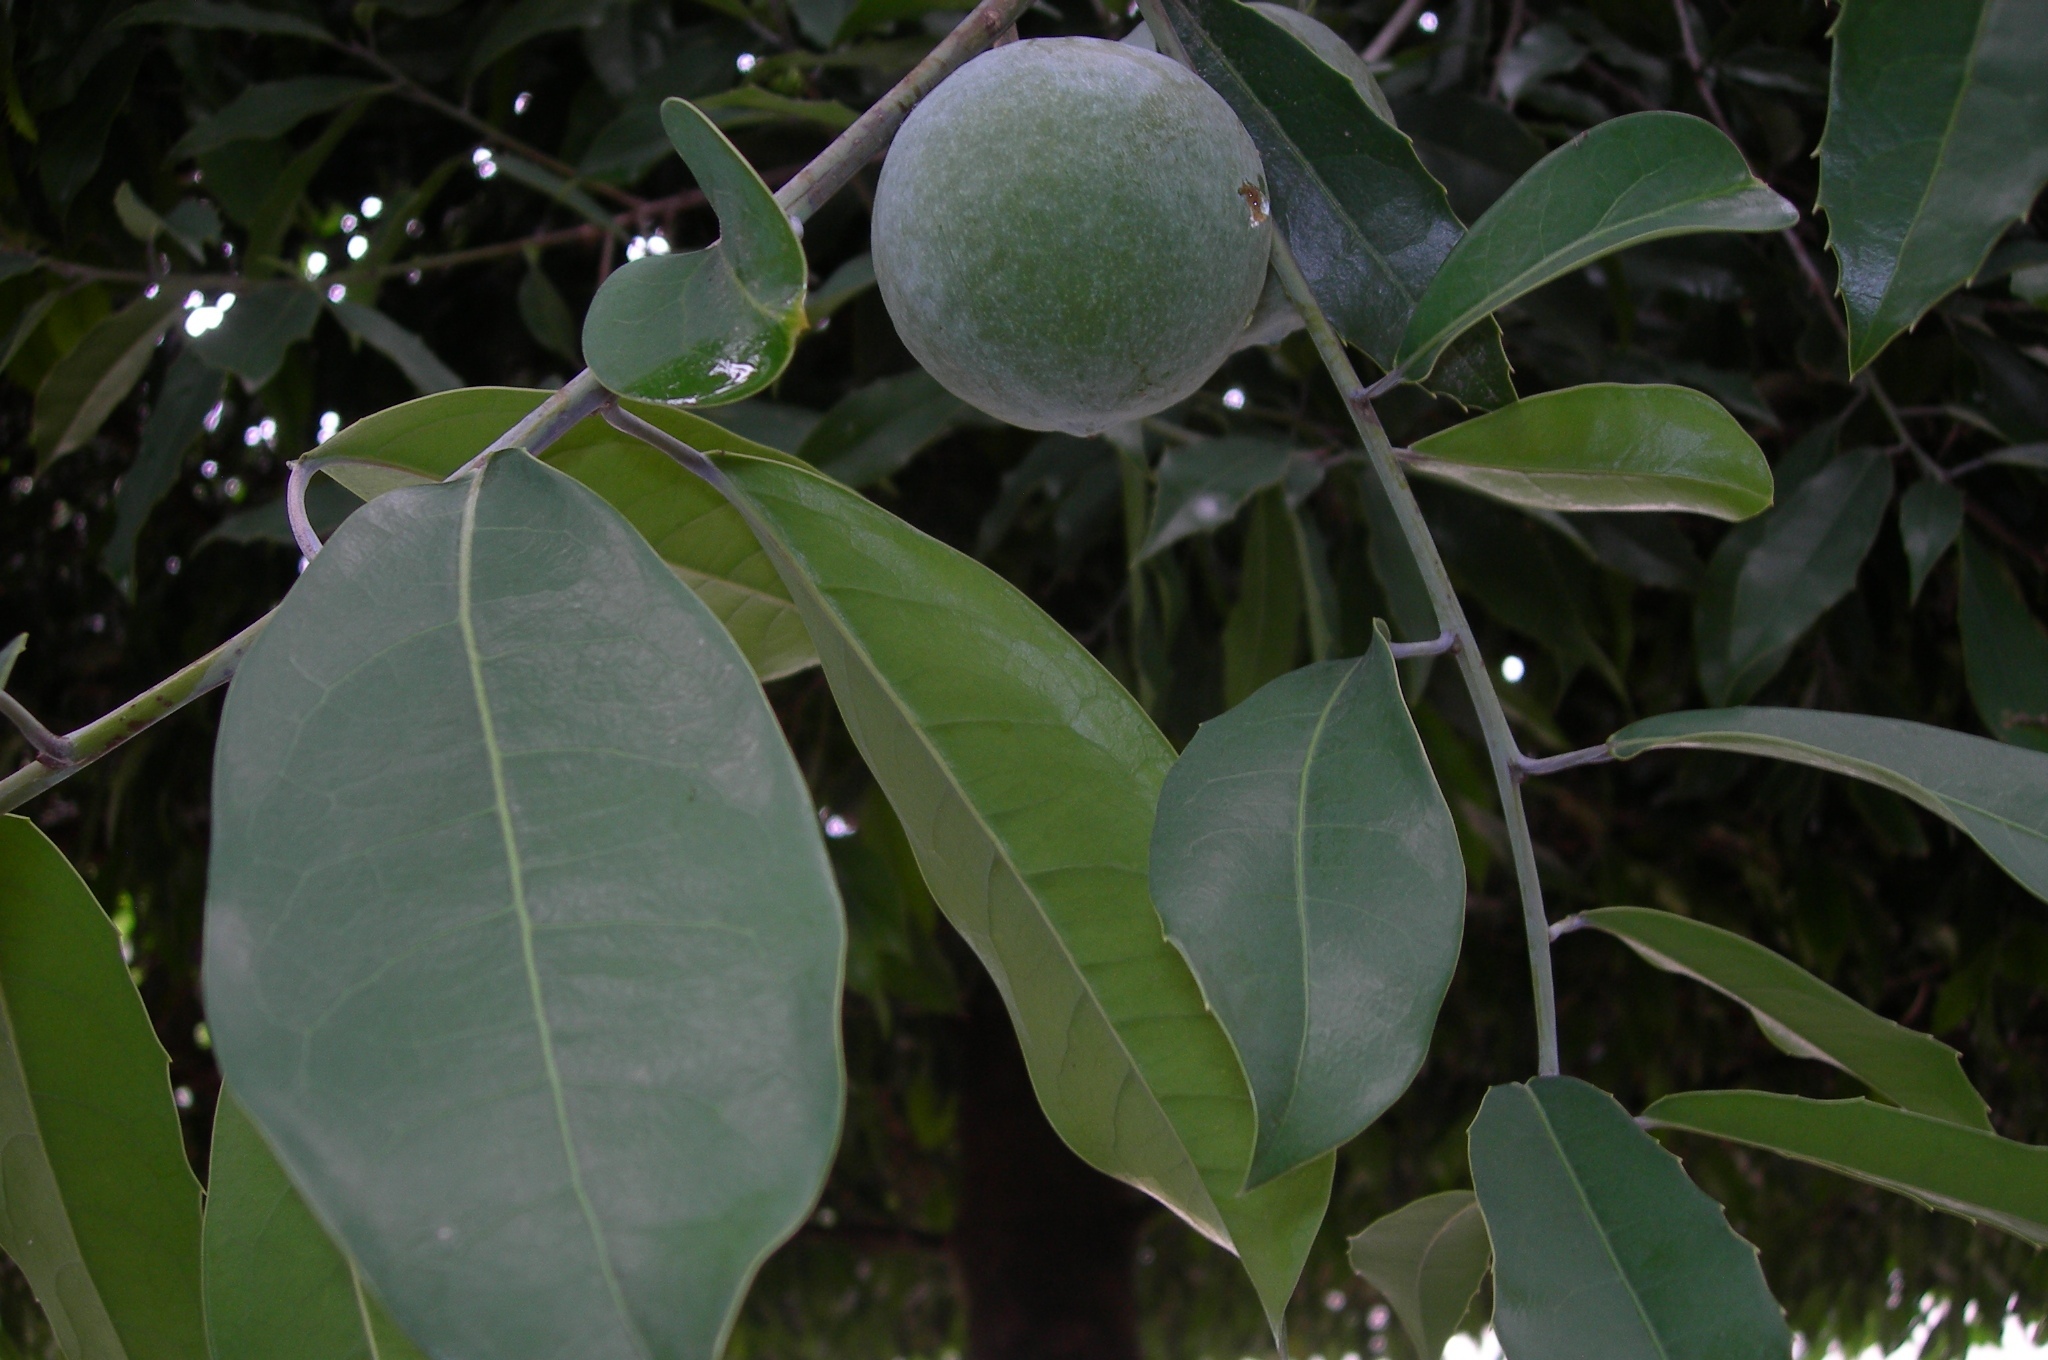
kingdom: Plantae
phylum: Tracheophyta
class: Magnoliopsida
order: Malpighiales
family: Salicaceae
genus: Olmediella
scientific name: Olmediella betschleriana
